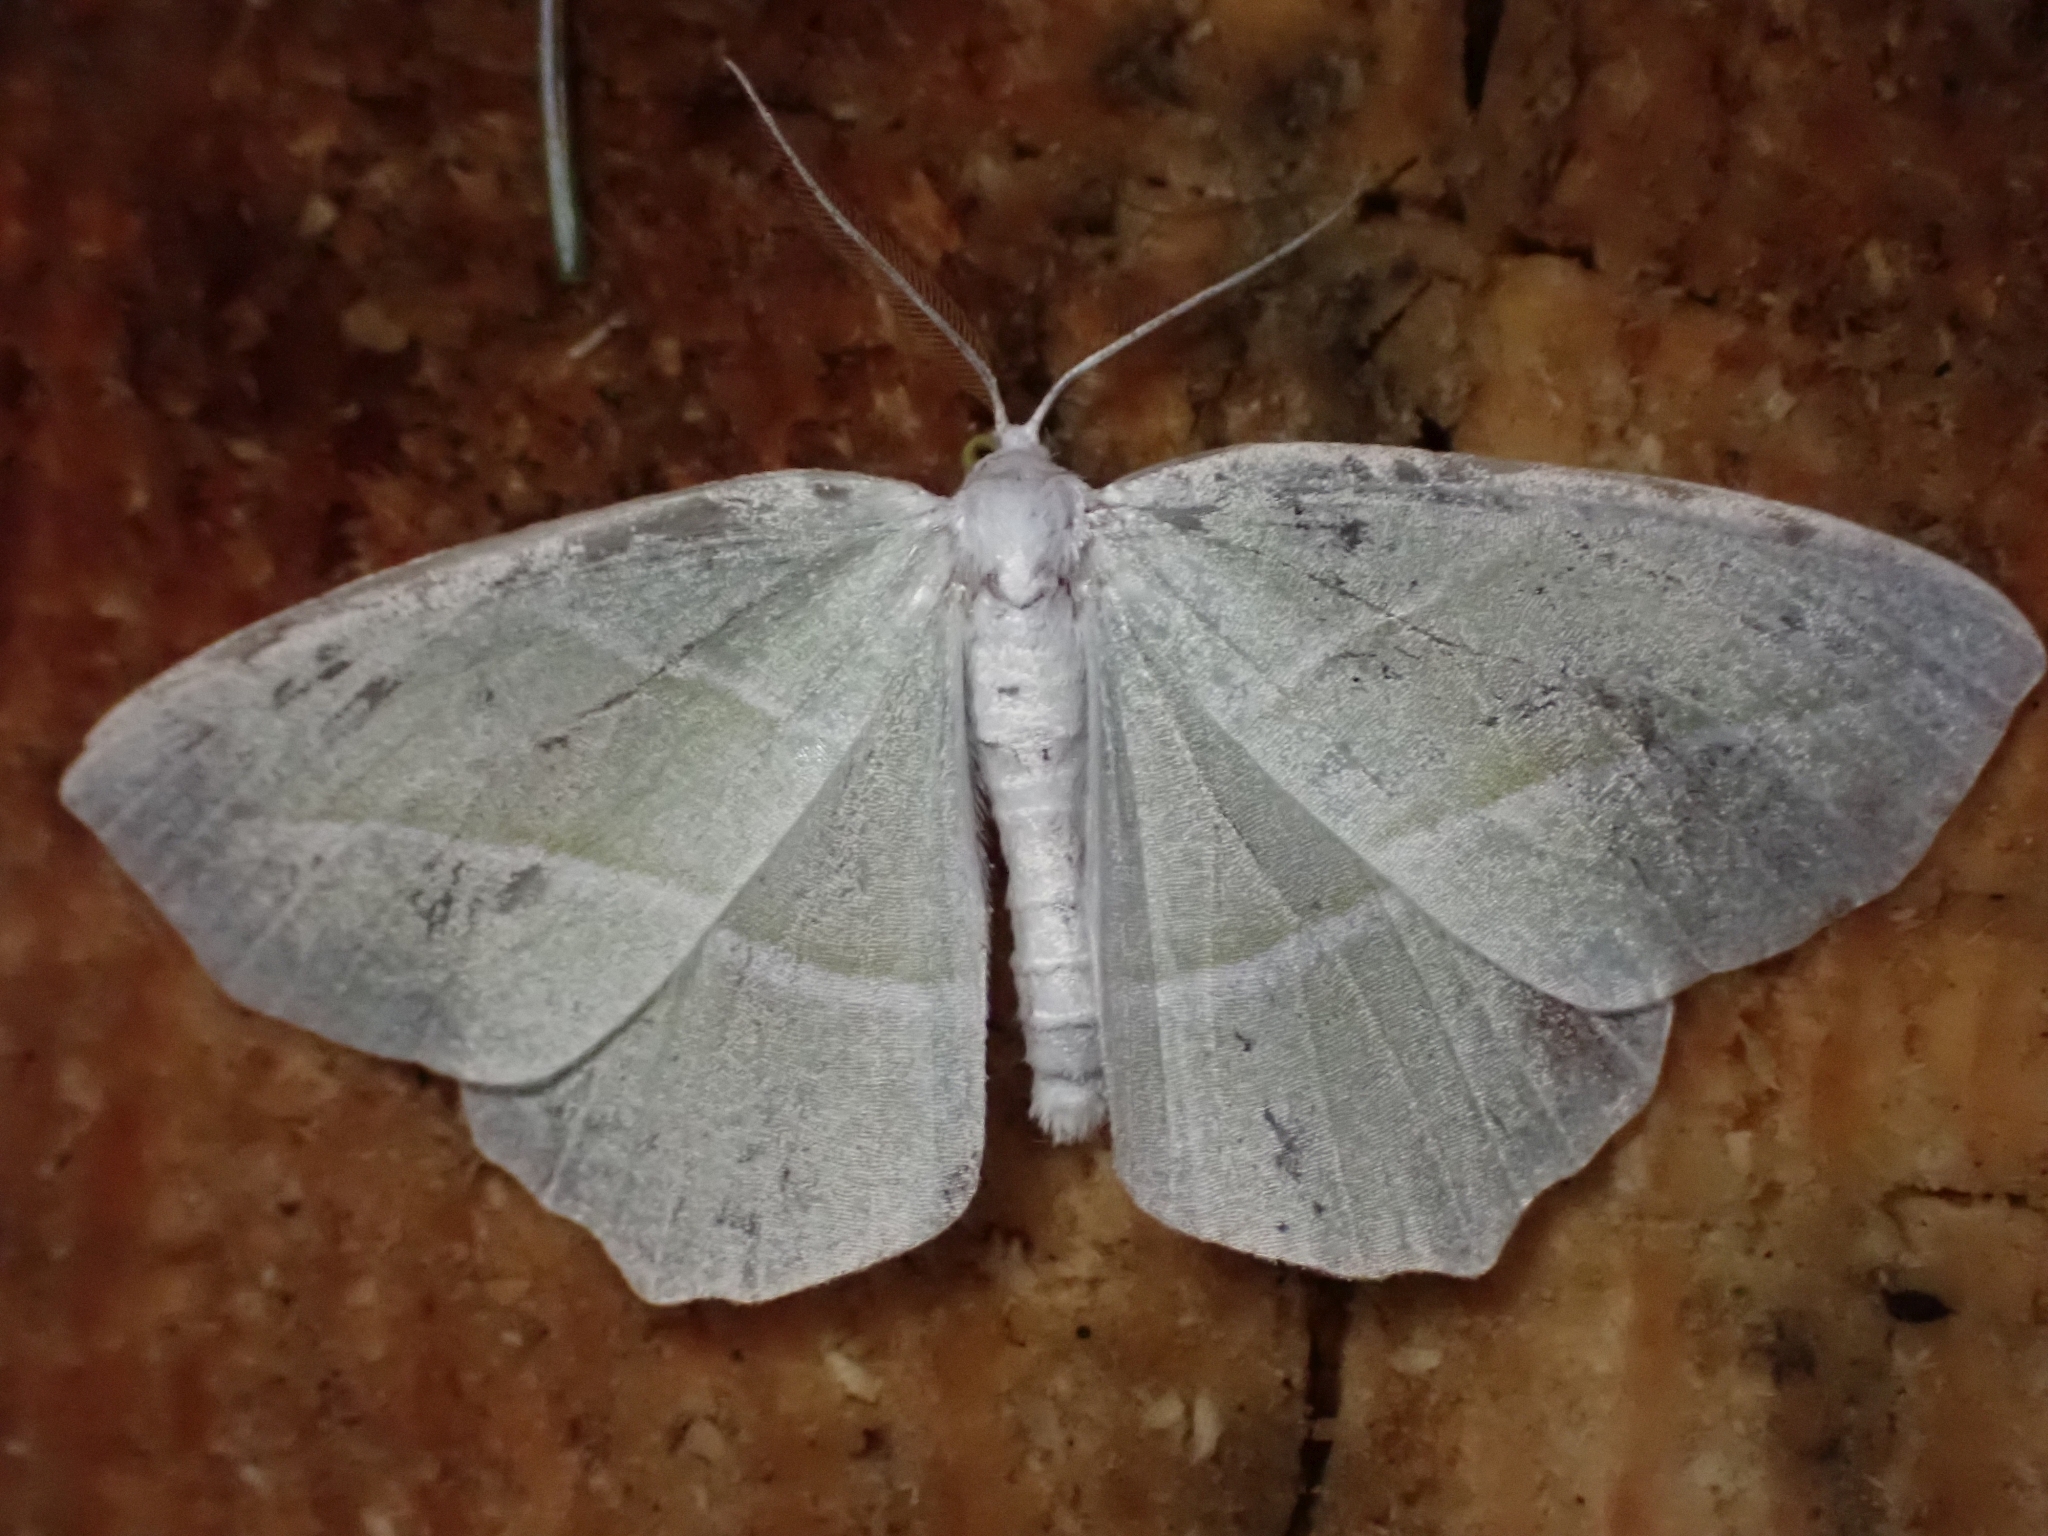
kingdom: Animalia
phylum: Arthropoda
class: Insecta
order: Lepidoptera
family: Geometridae
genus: Campaea
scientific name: Campaea perlata
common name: Fringed looper
